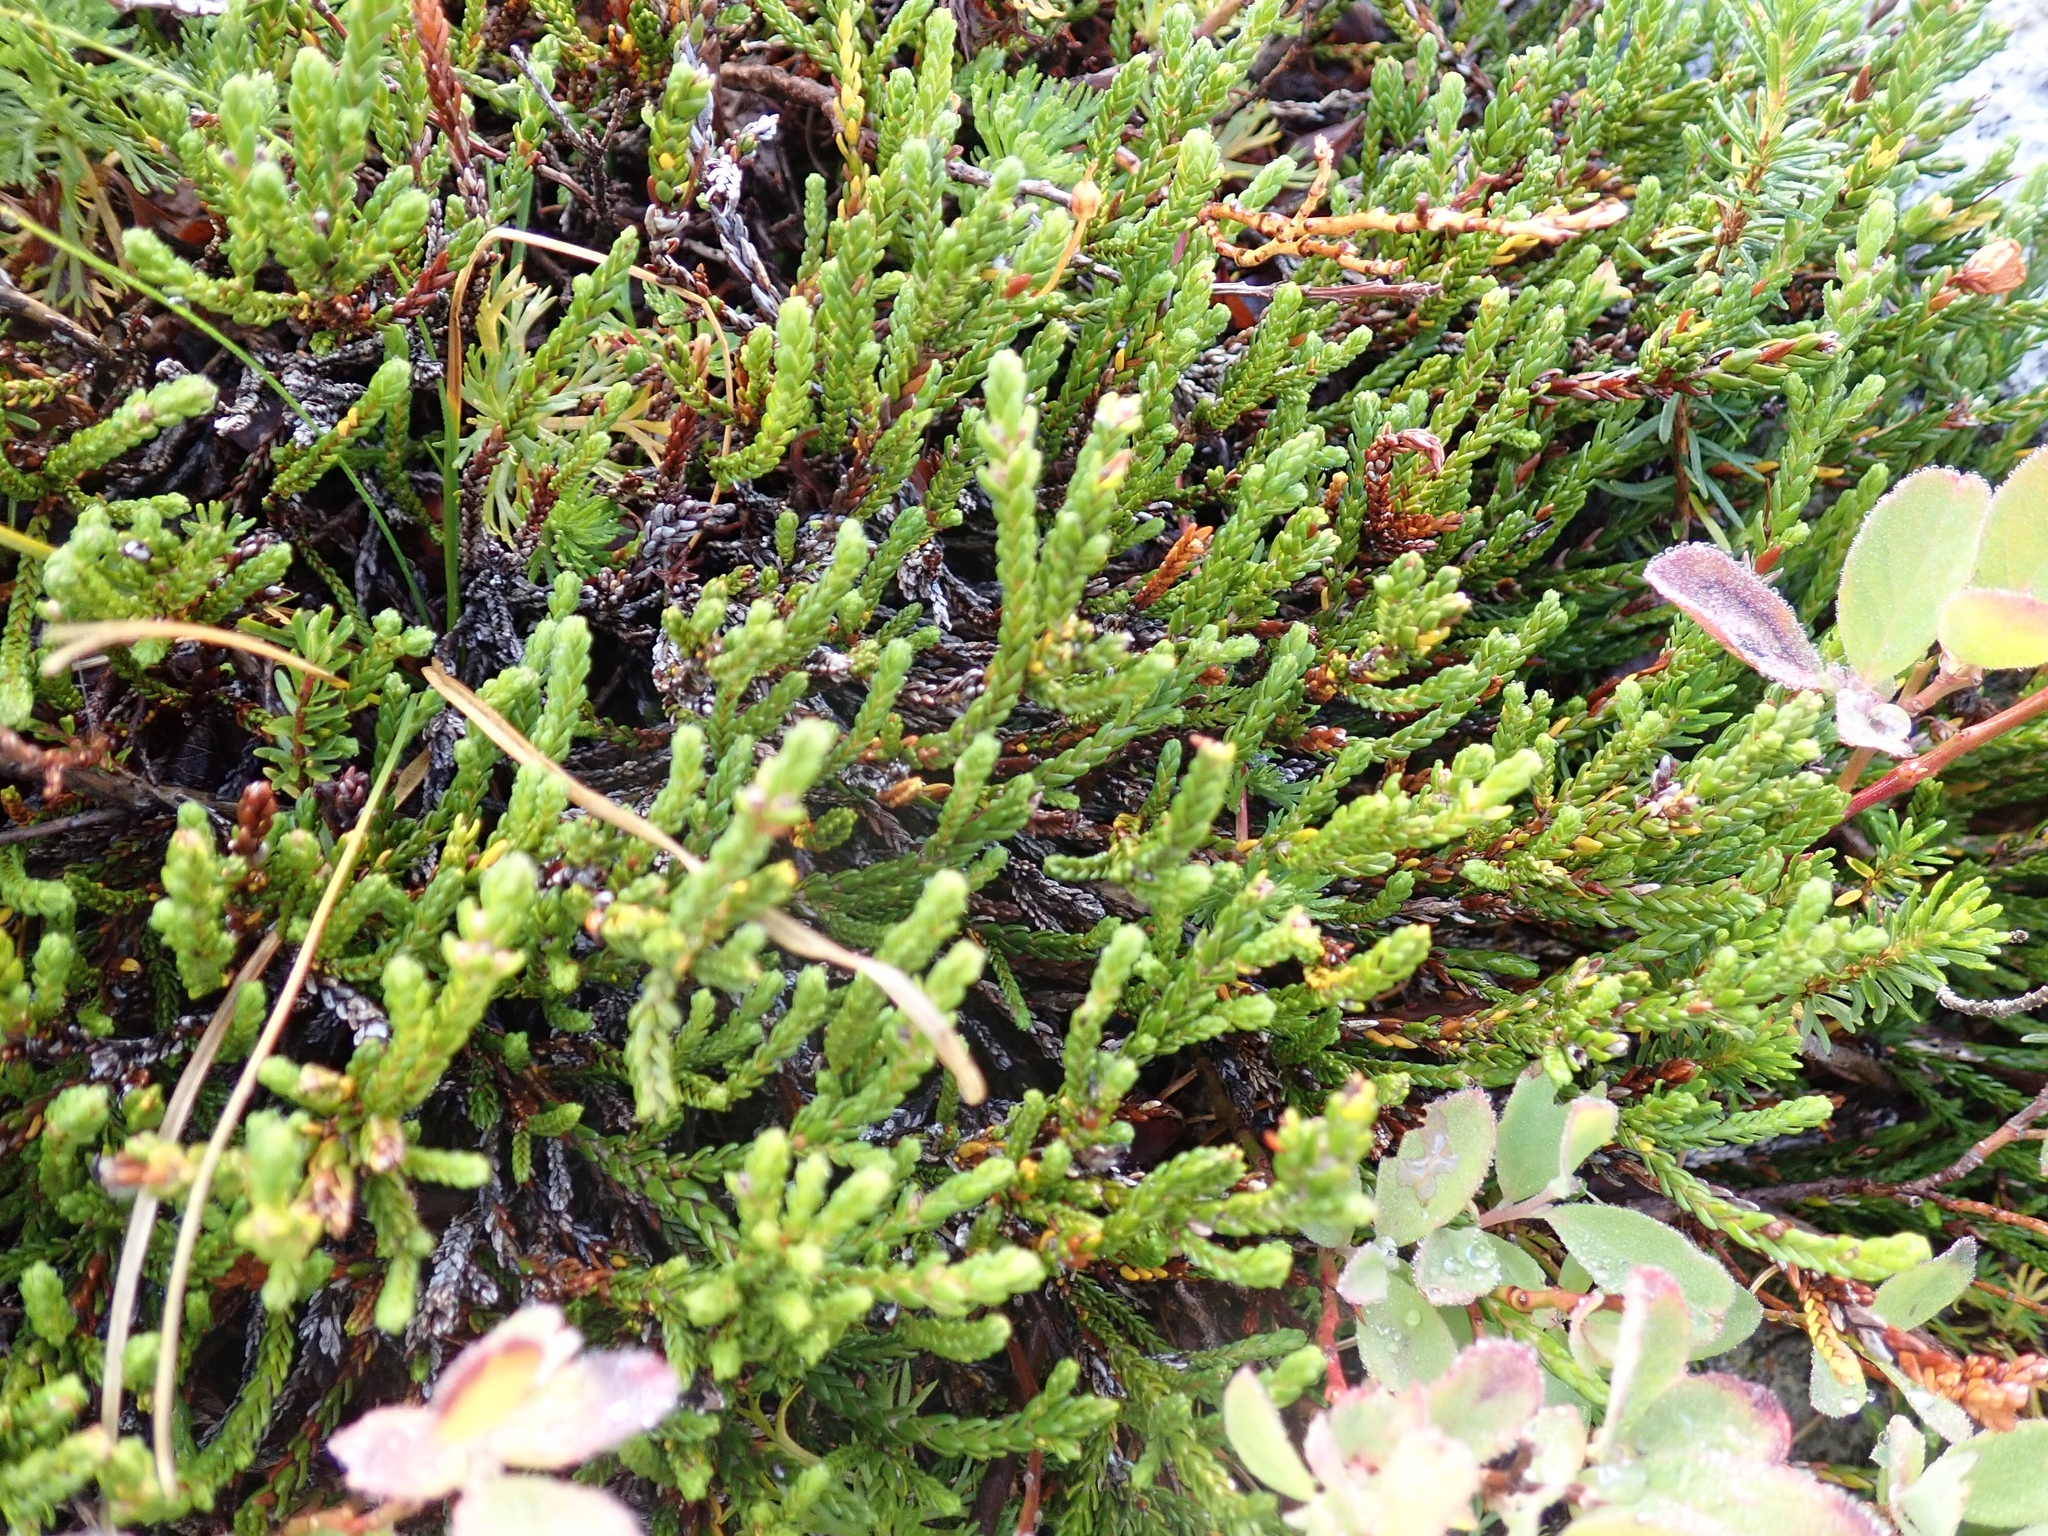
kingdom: Plantae
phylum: Tracheophyta
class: Magnoliopsida
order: Ericales
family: Ericaceae
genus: Cassiope
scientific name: Cassiope mertensiana
